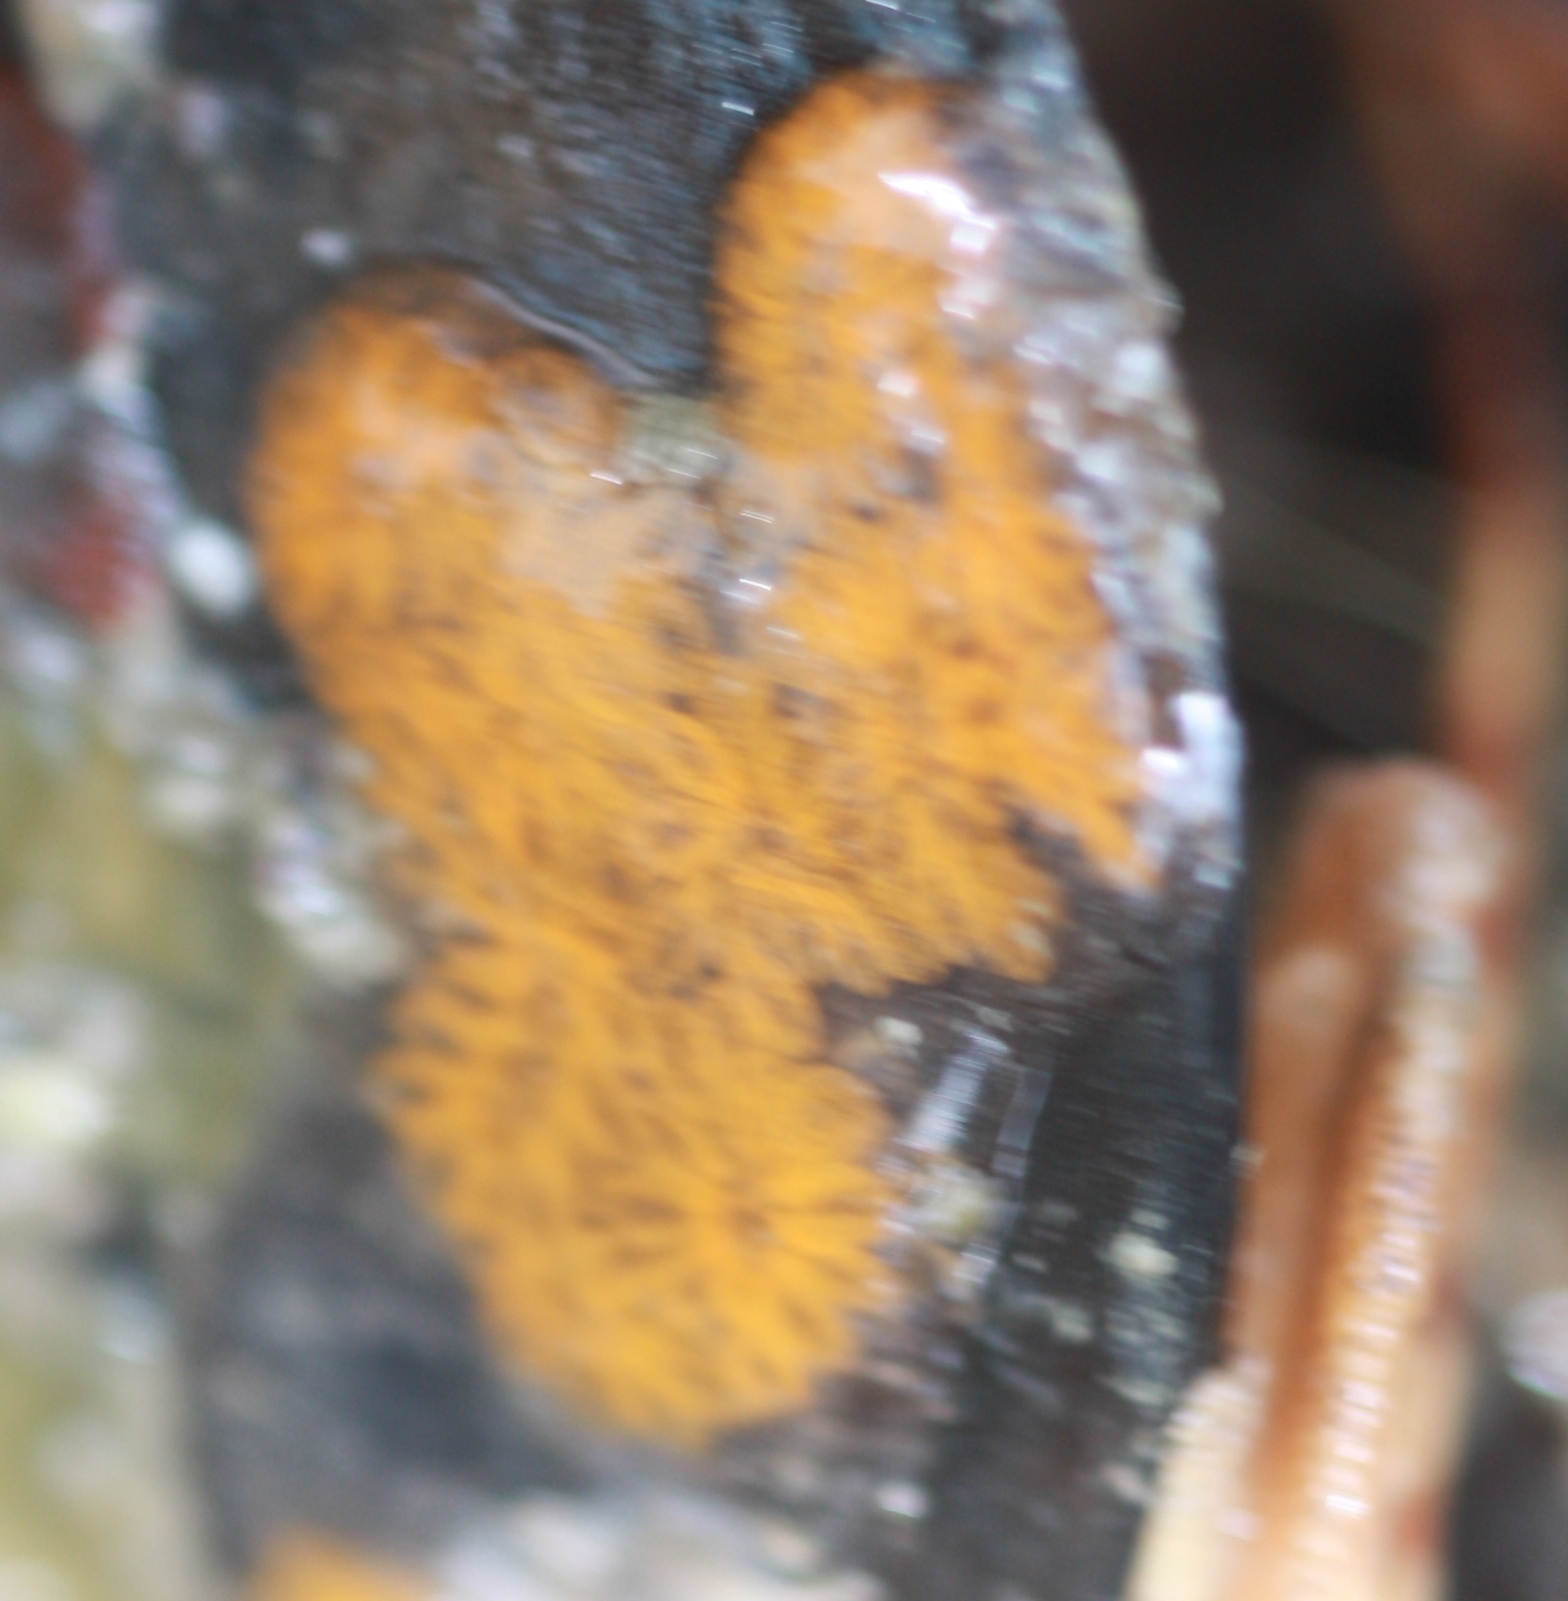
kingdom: Animalia
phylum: Chordata
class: Ascidiacea
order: Stolidobranchia
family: Styelidae
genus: Botryllus
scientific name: Botryllus schlosseri
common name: Golden star tunicate
